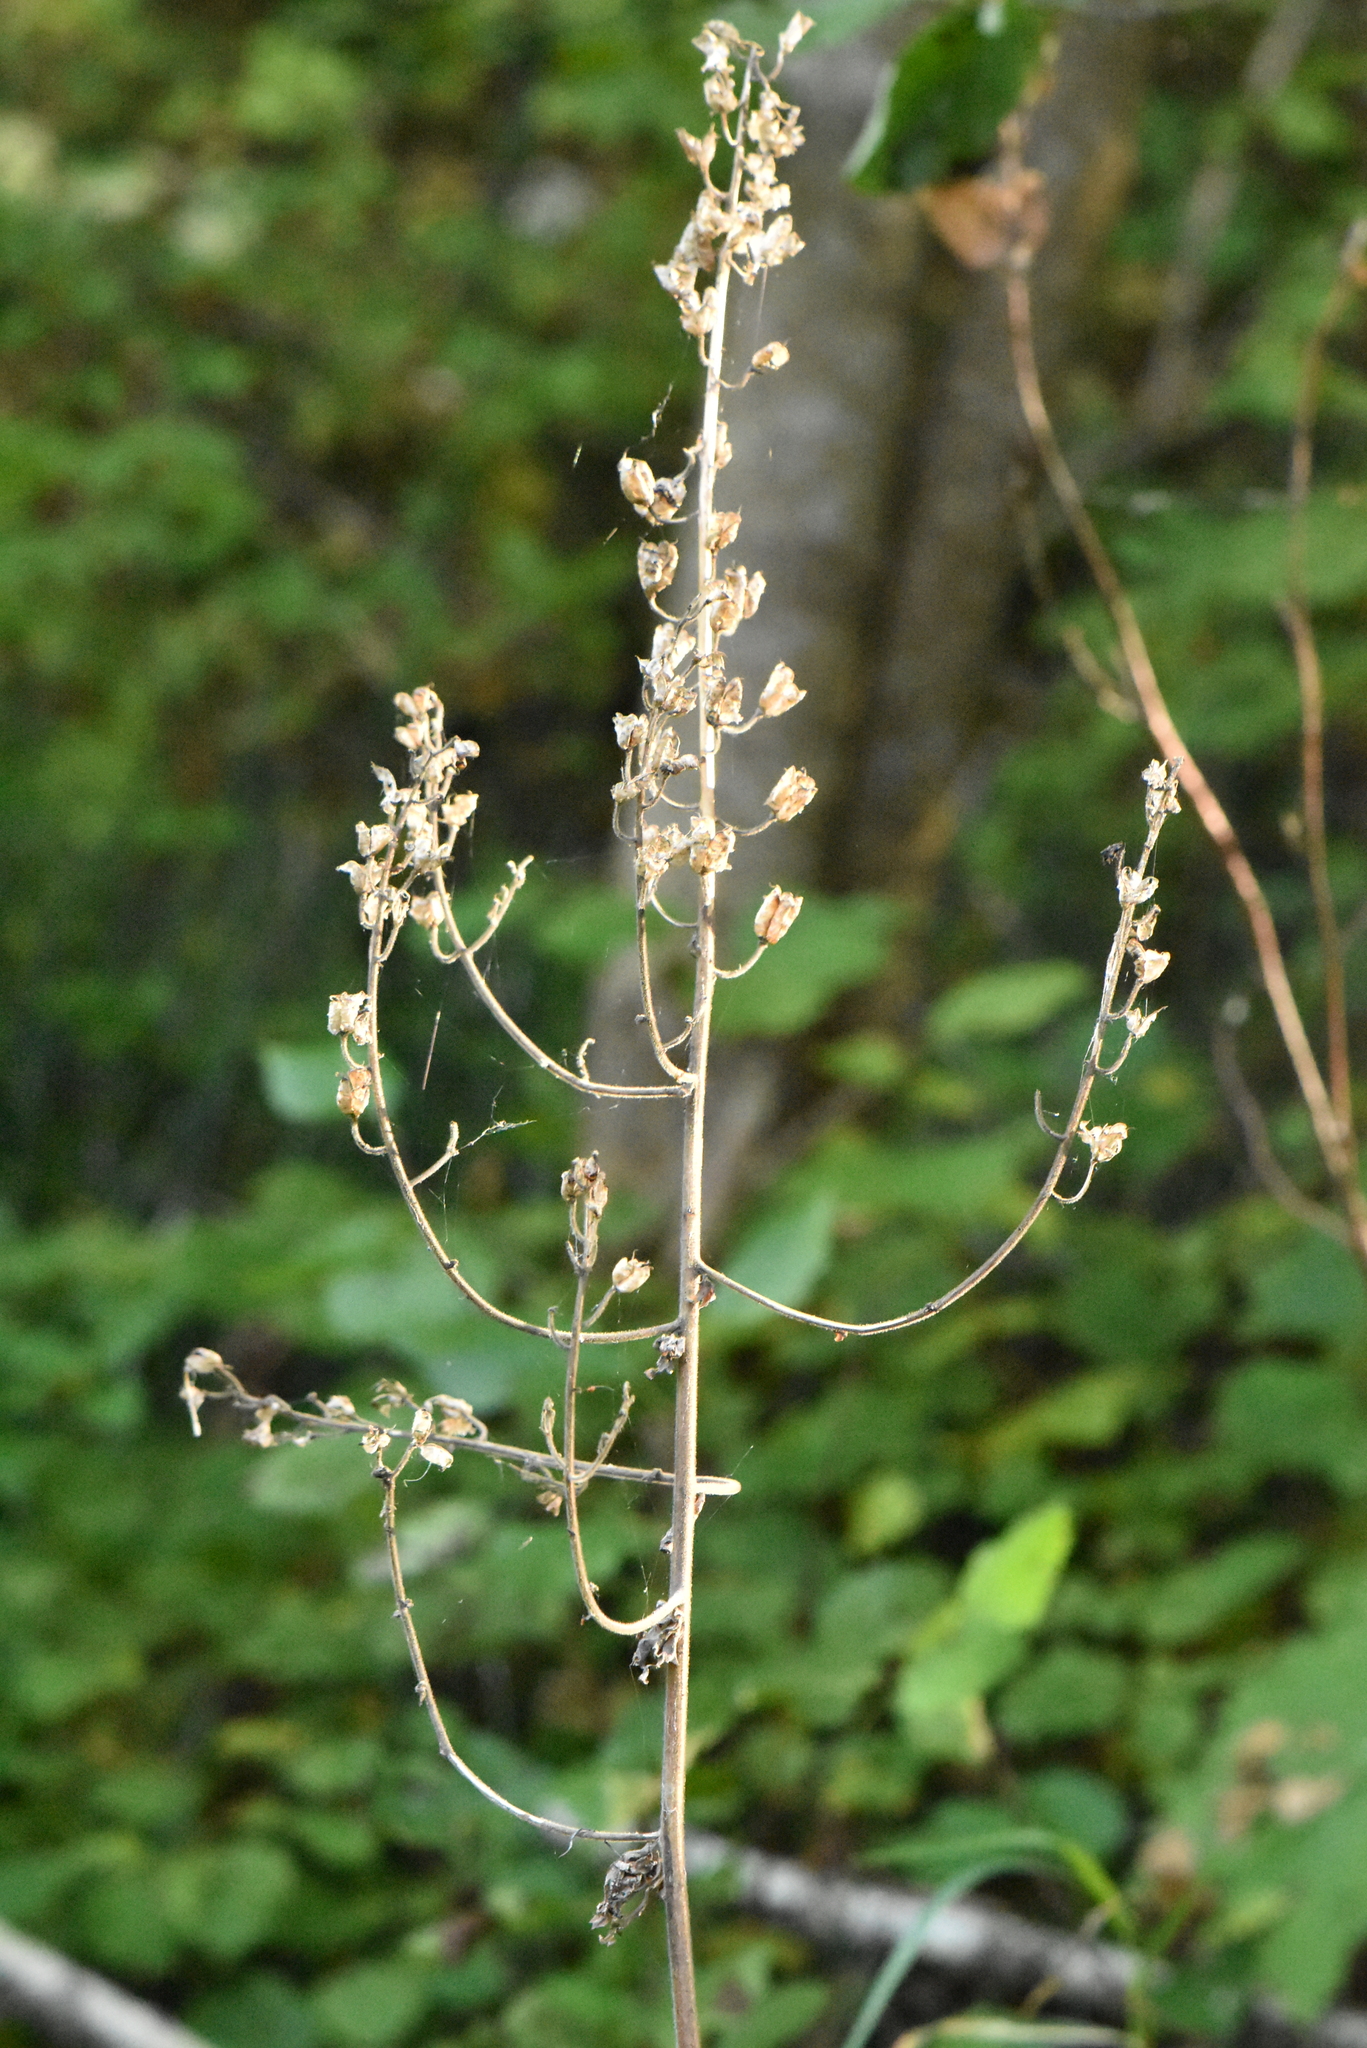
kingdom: Plantae
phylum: Tracheophyta
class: Magnoliopsida
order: Ranunculales
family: Ranunculaceae
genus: Aconitum
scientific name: Aconitum septentrionale
